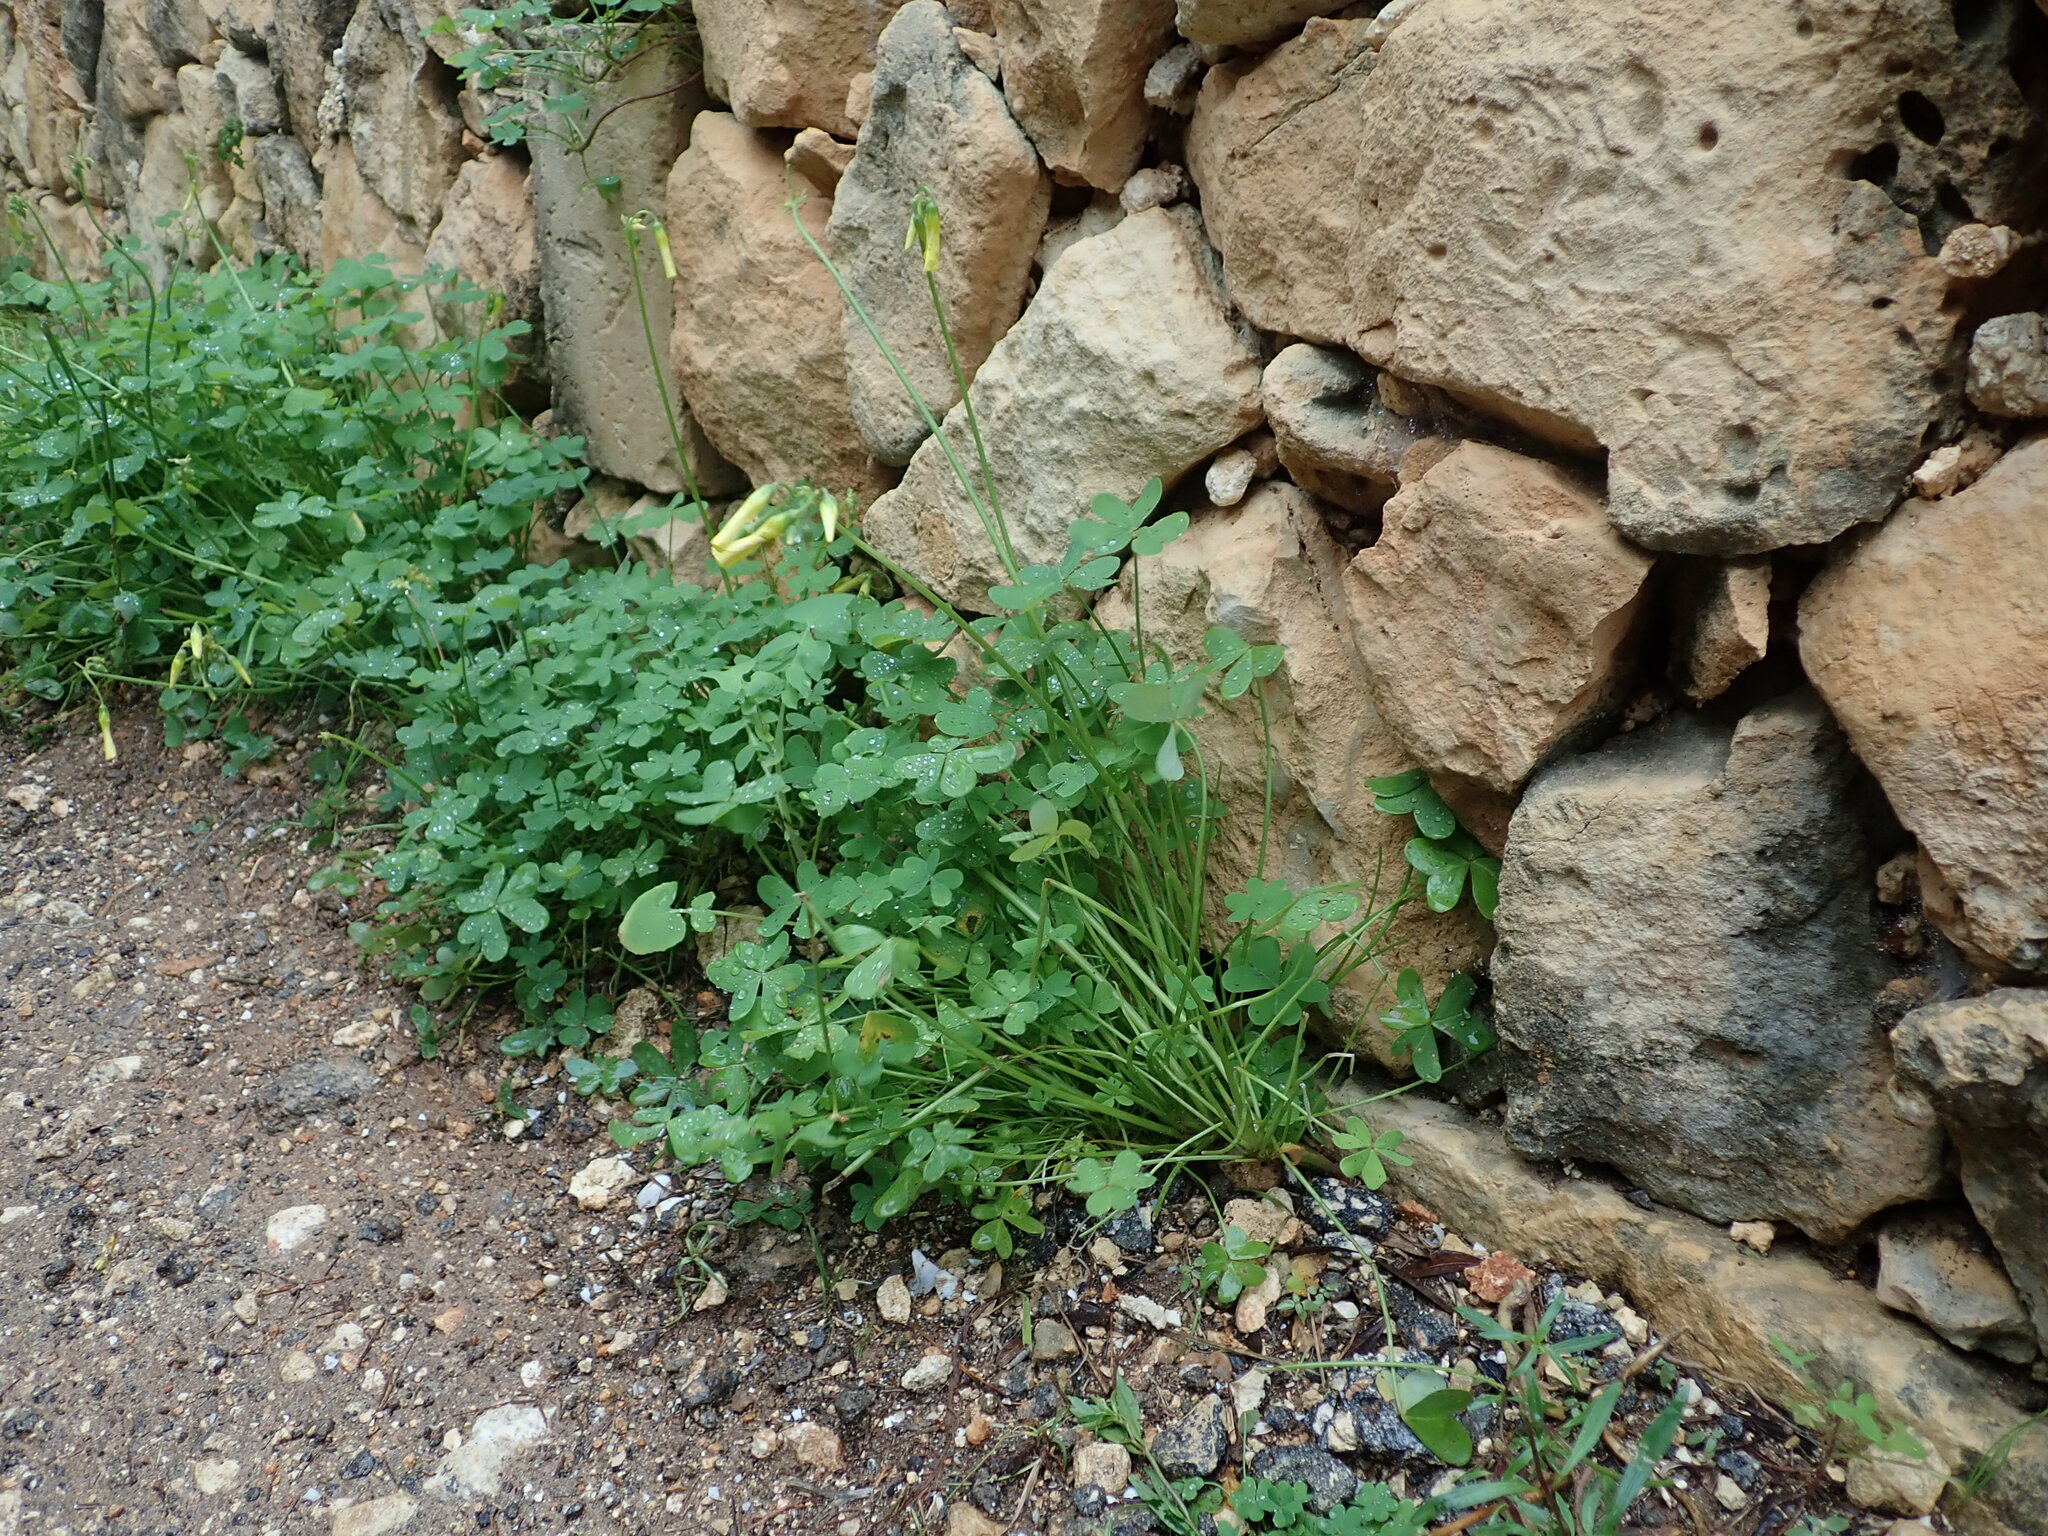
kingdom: Plantae
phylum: Tracheophyta
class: Magnoliopsida
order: Oxalidales
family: Oxalidaceae
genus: Oxalis
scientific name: Oxalis pes-caprae
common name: Bermuda-buttercup
